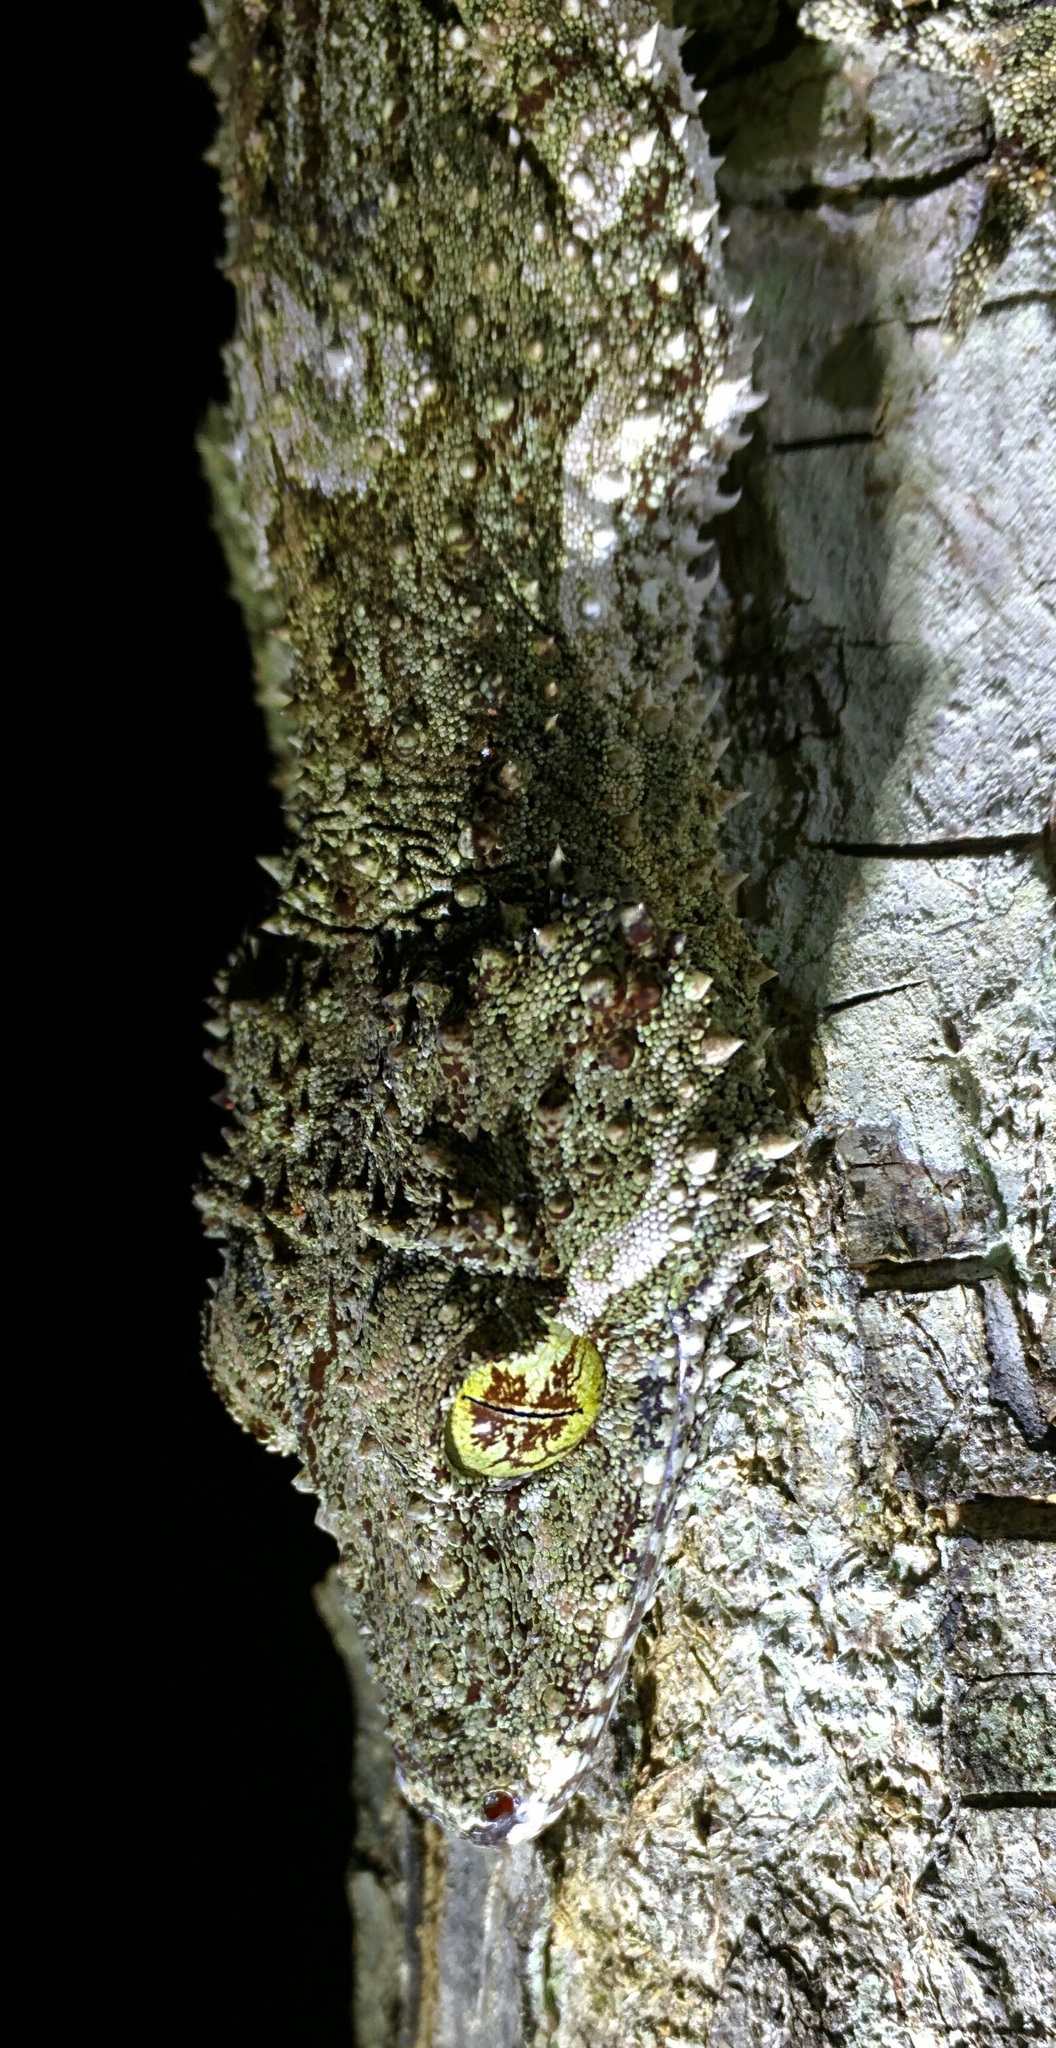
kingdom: Animalia
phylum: Chordata
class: Squamata
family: Carphodactylidae
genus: Saltuarius
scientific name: Saltuarius cornutus
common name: Leaf-tailed gecko
